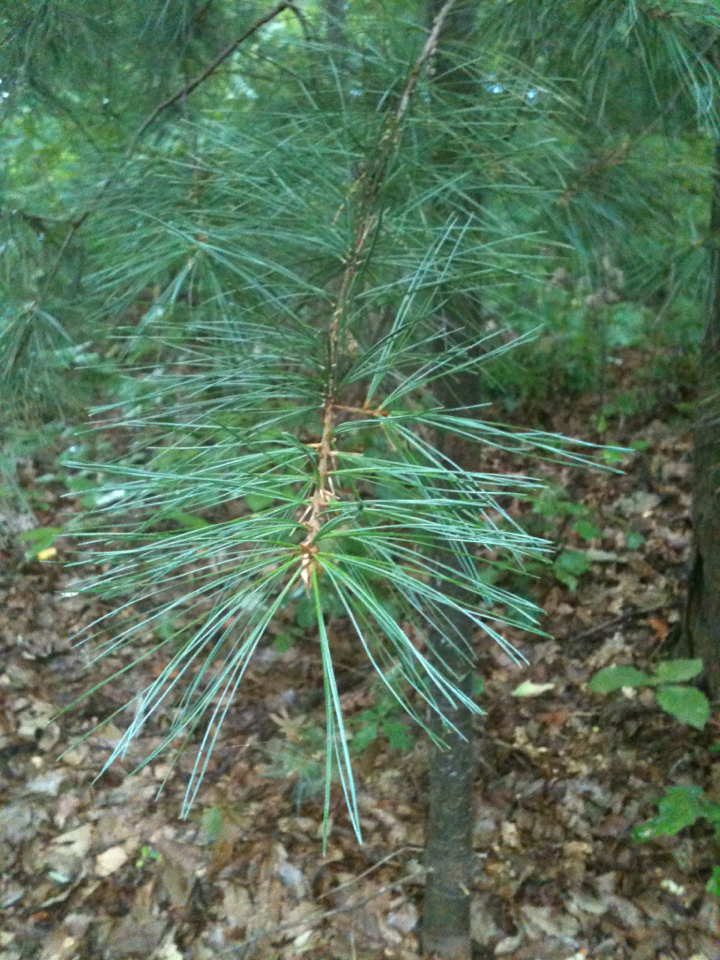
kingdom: Plantae
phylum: Tracheophyta
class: Pinopsida
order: Pinales
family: Pinaceae
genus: Pinus
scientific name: Pinus strobus
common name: Weymouth pine
